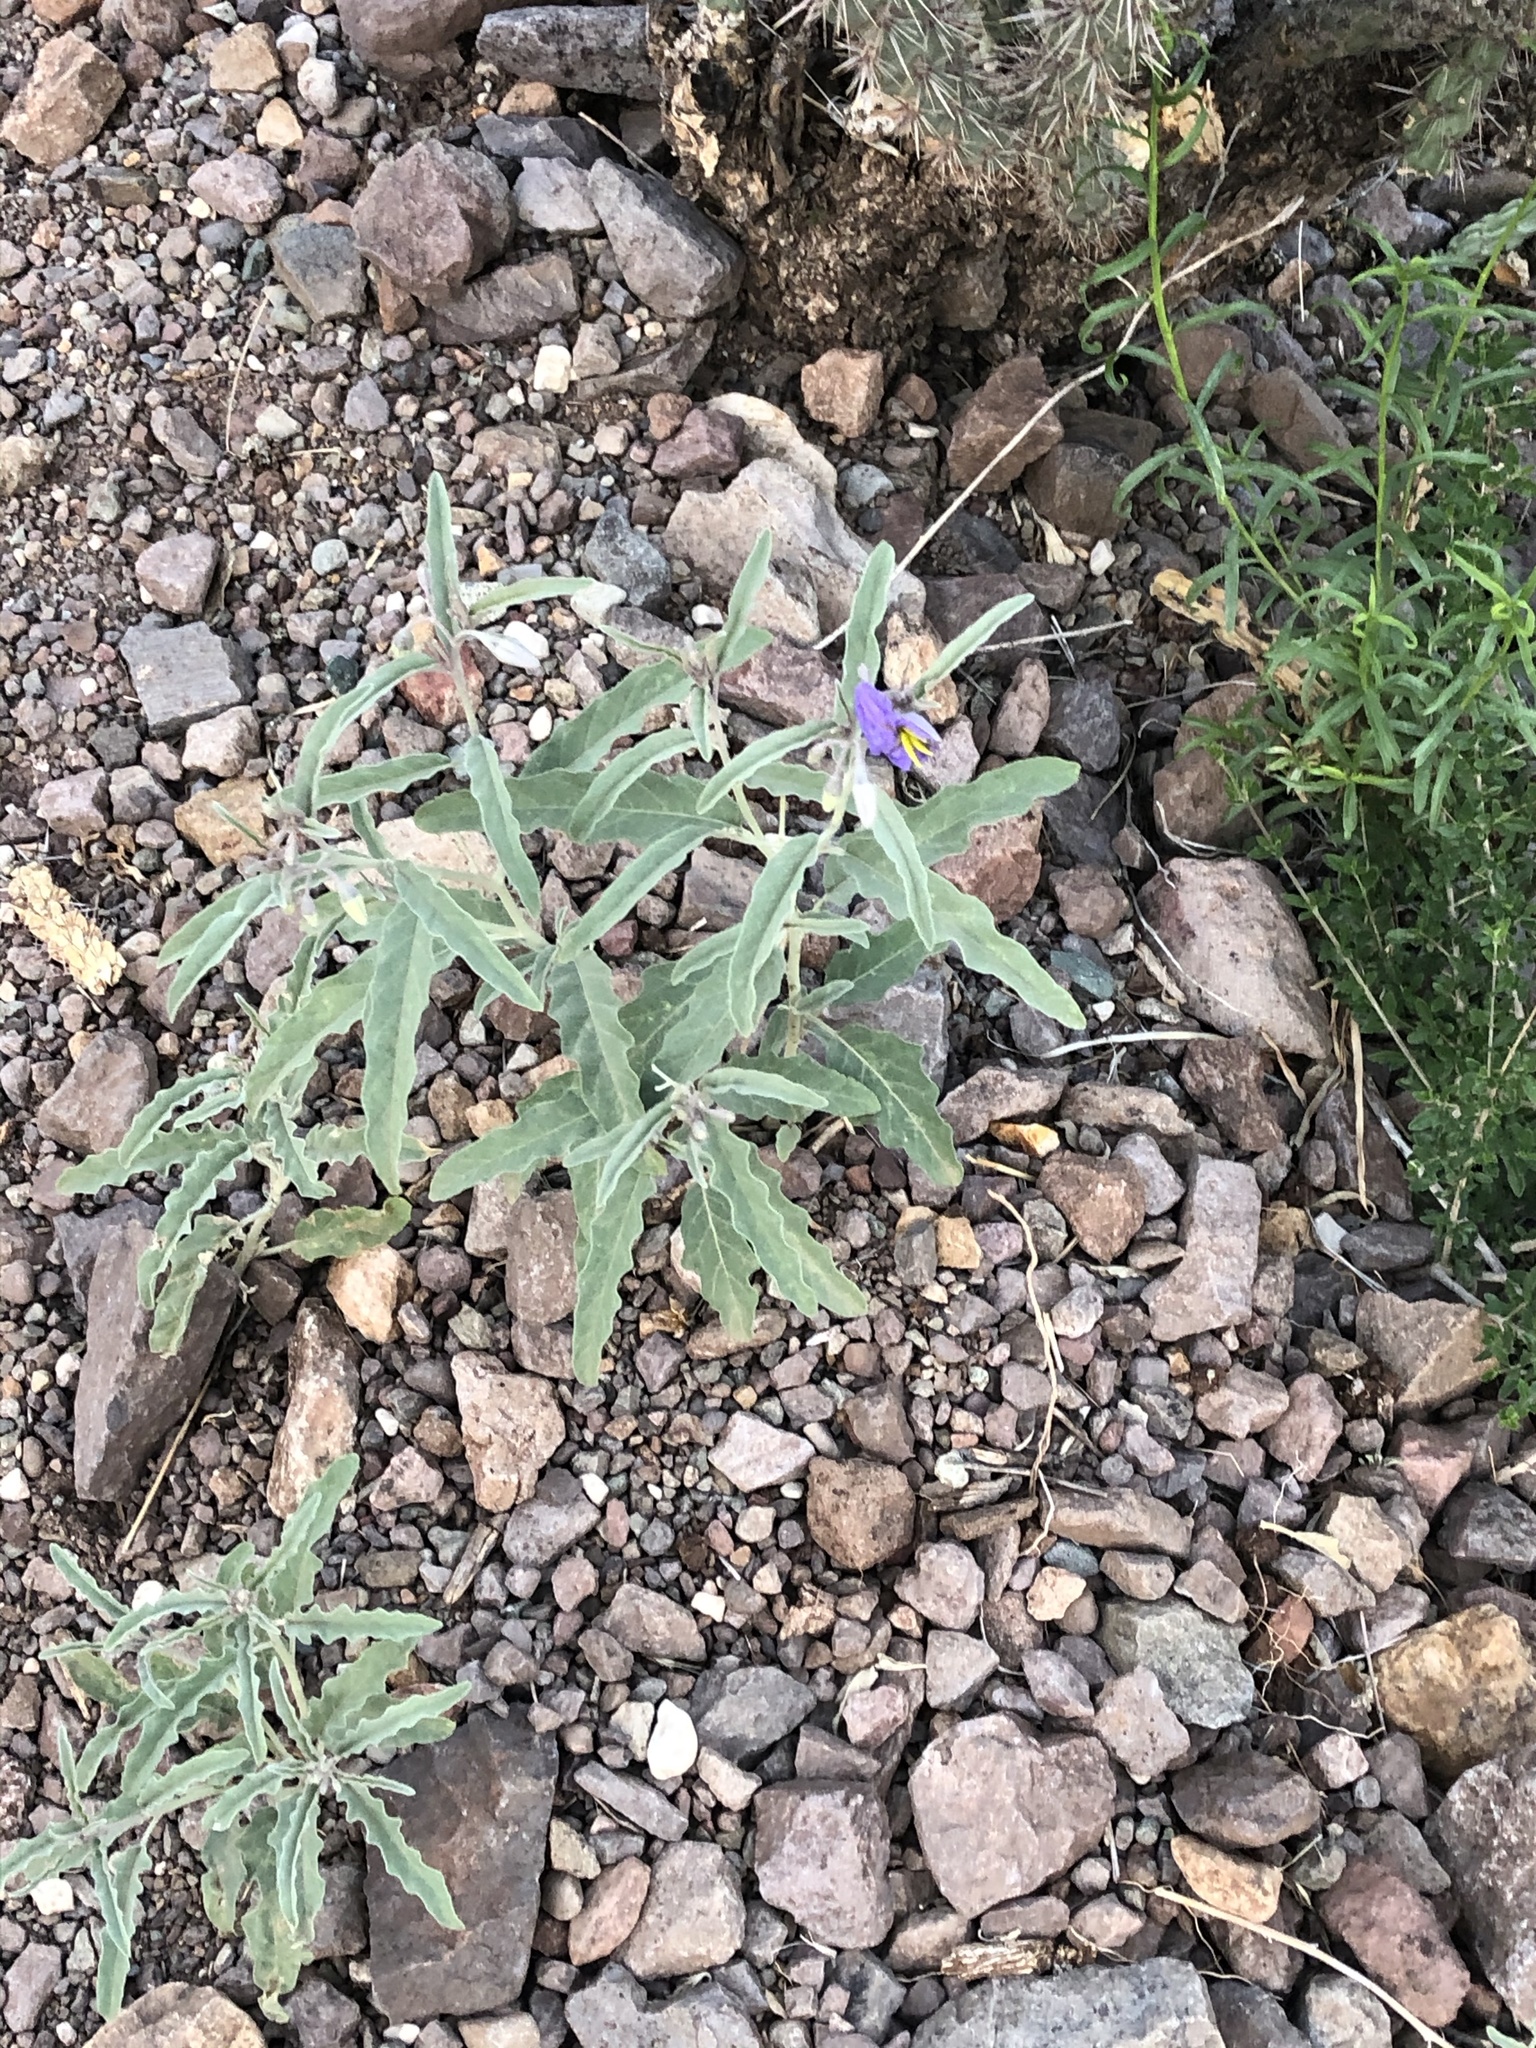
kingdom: Plantae
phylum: Tracheophyta
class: Magnoliopsida
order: Solanales
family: Solanaceae
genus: Solanum
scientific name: Solanum elaeagnifolium
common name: Silverleaf nightshade
